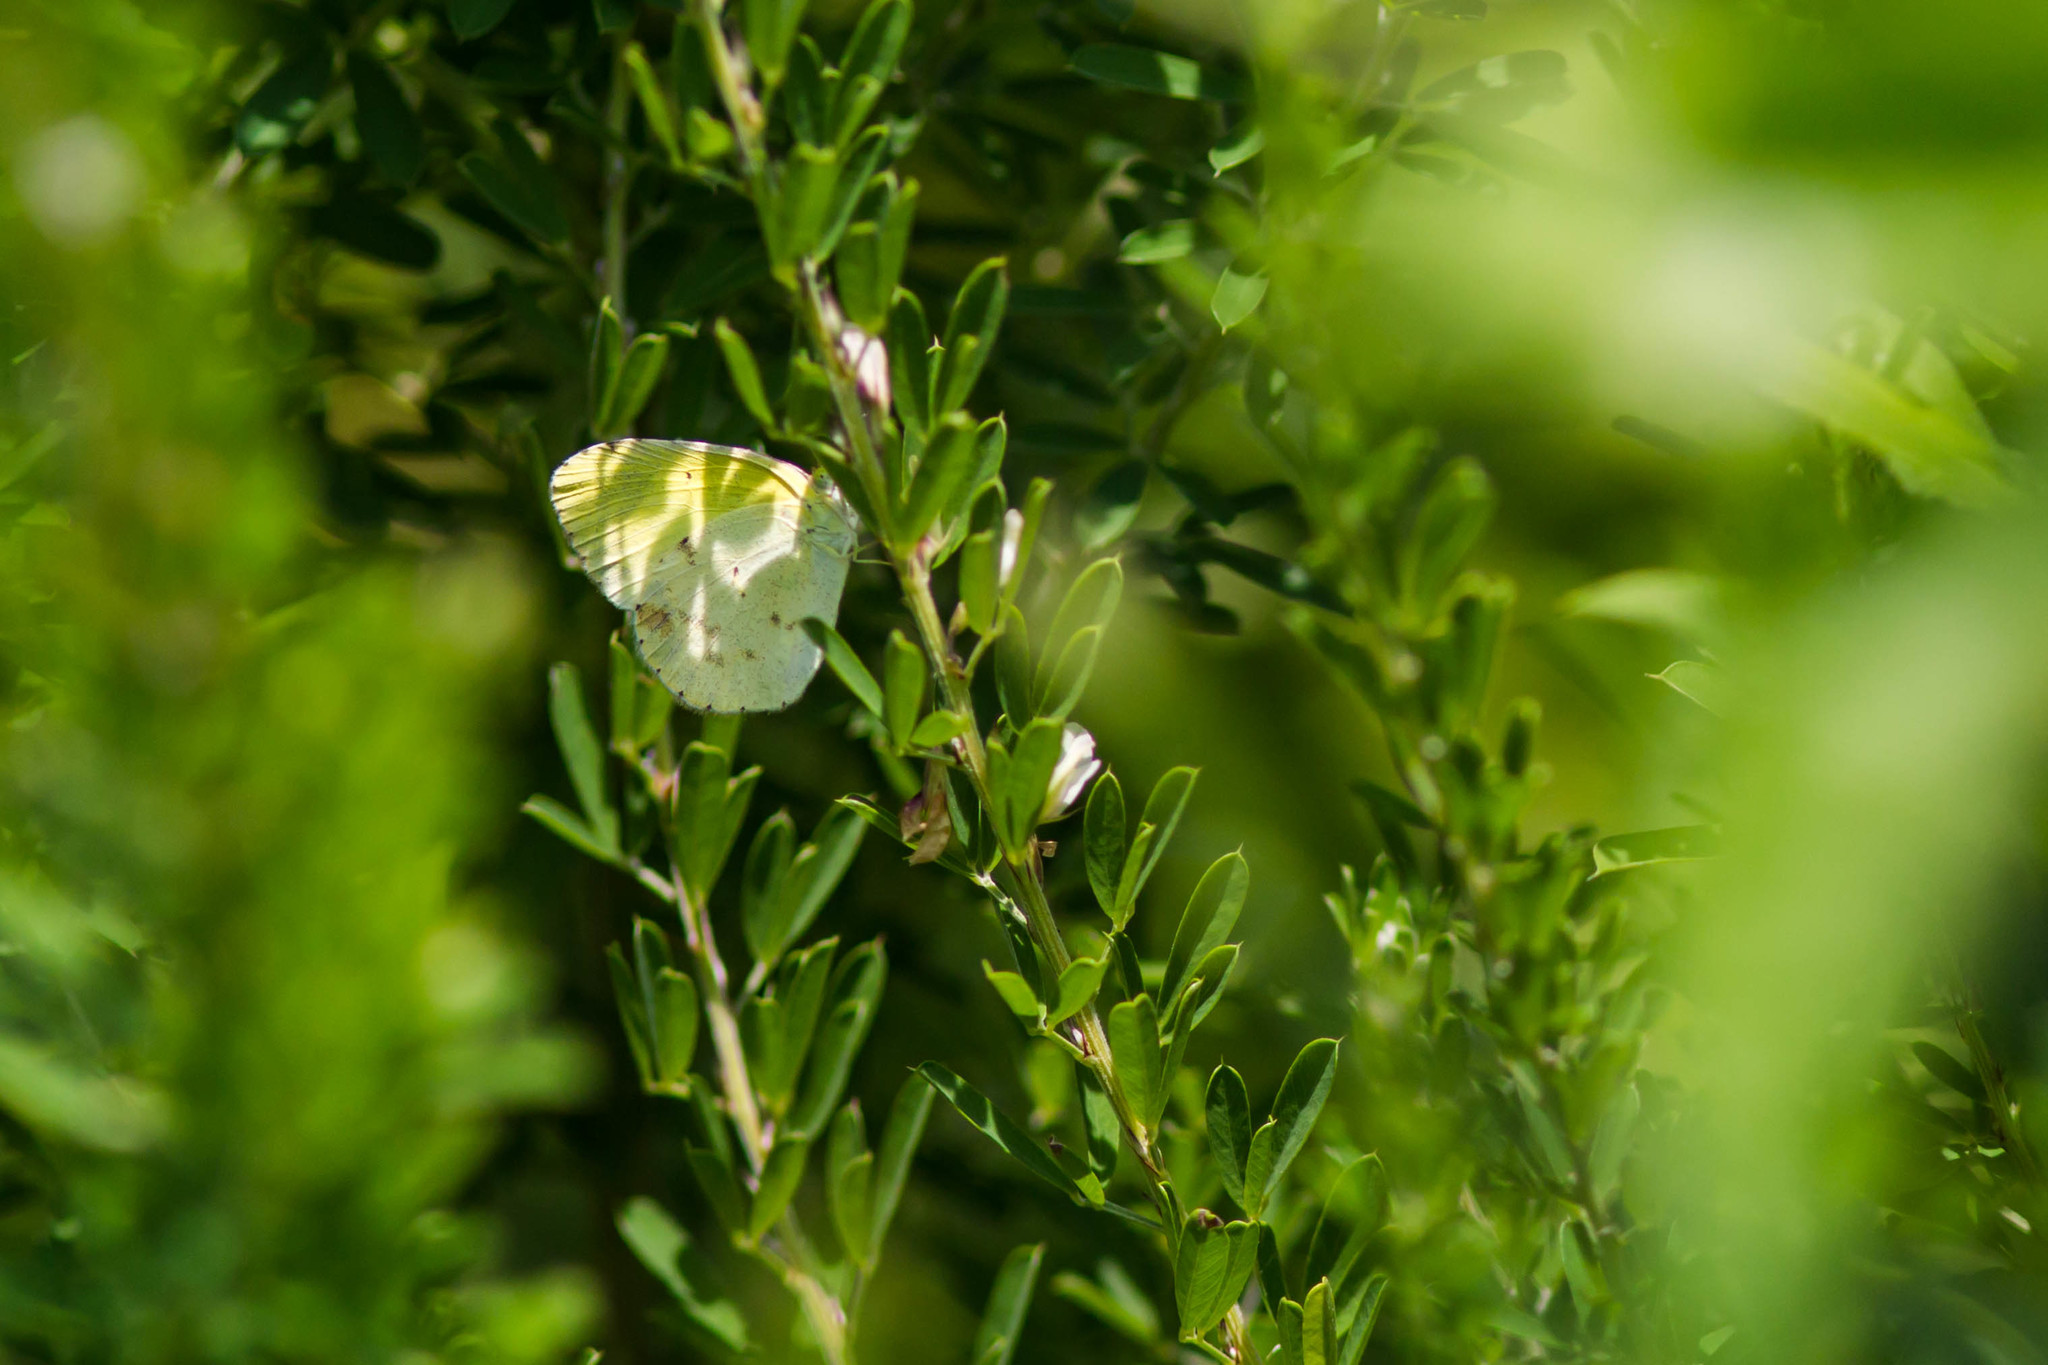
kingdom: Animalia
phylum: Arthropoda
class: Insecta
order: Lepidoptera
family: Pieridae
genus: Pyrisitia
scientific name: Pyrisitia lisa
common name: Little yellow
